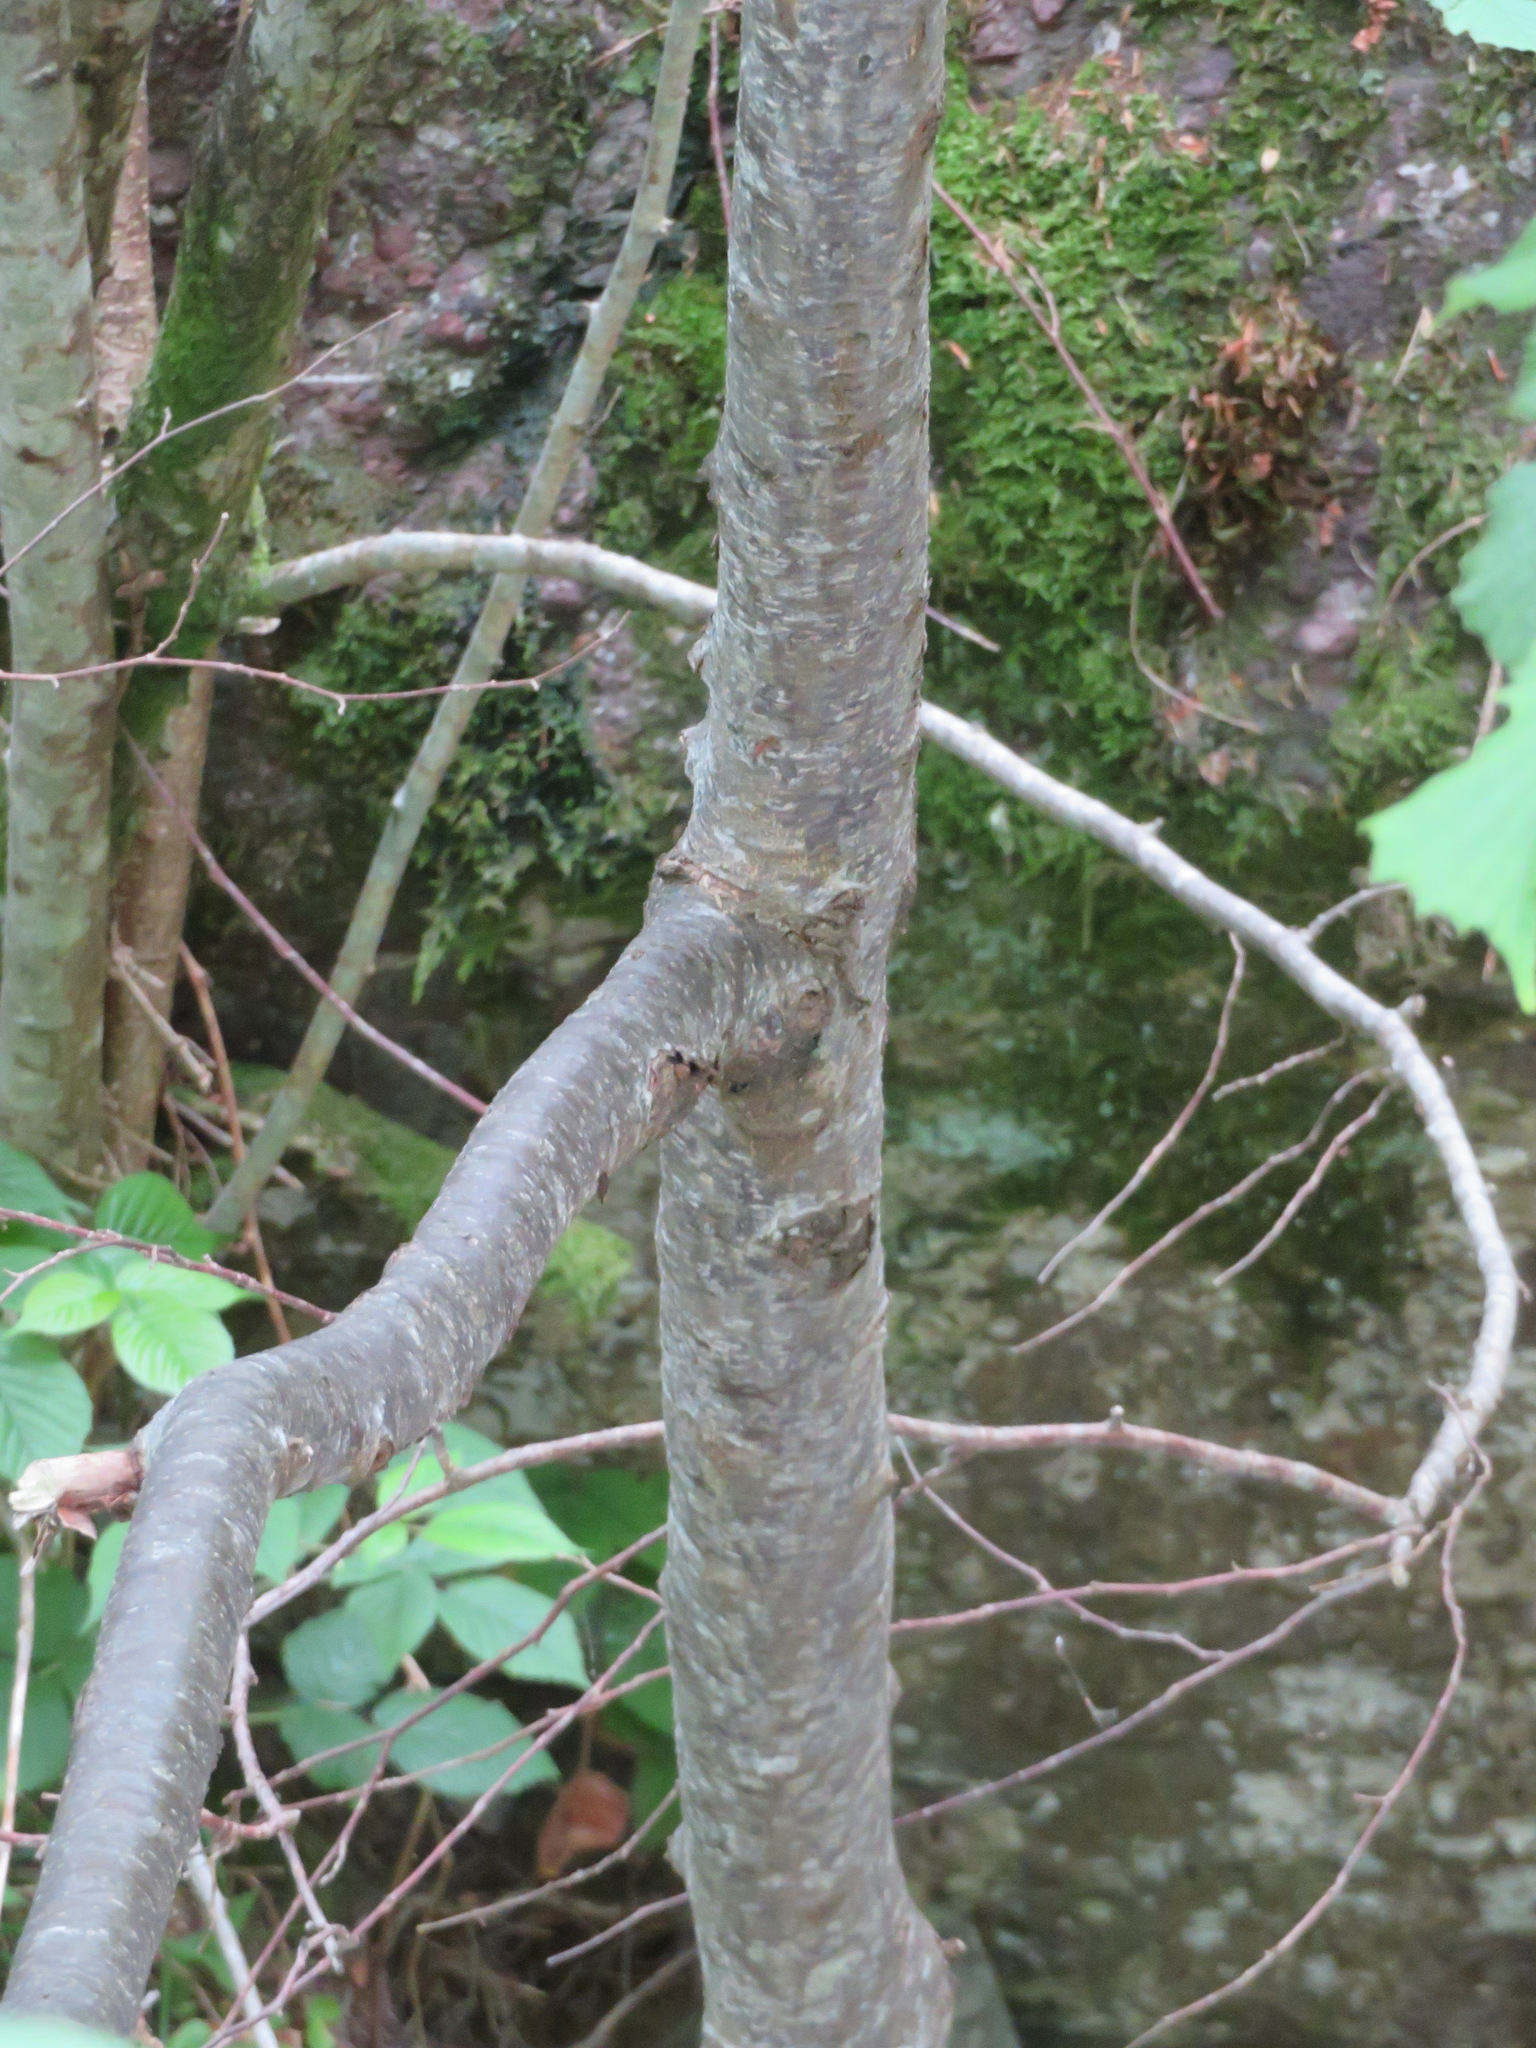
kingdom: Plantae
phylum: Tracheophyta
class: Magnoliopsida
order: Fagales
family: Betulaceae
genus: Ostrya
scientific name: Ostrya carpinifolia
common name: European hop-hornbeam
